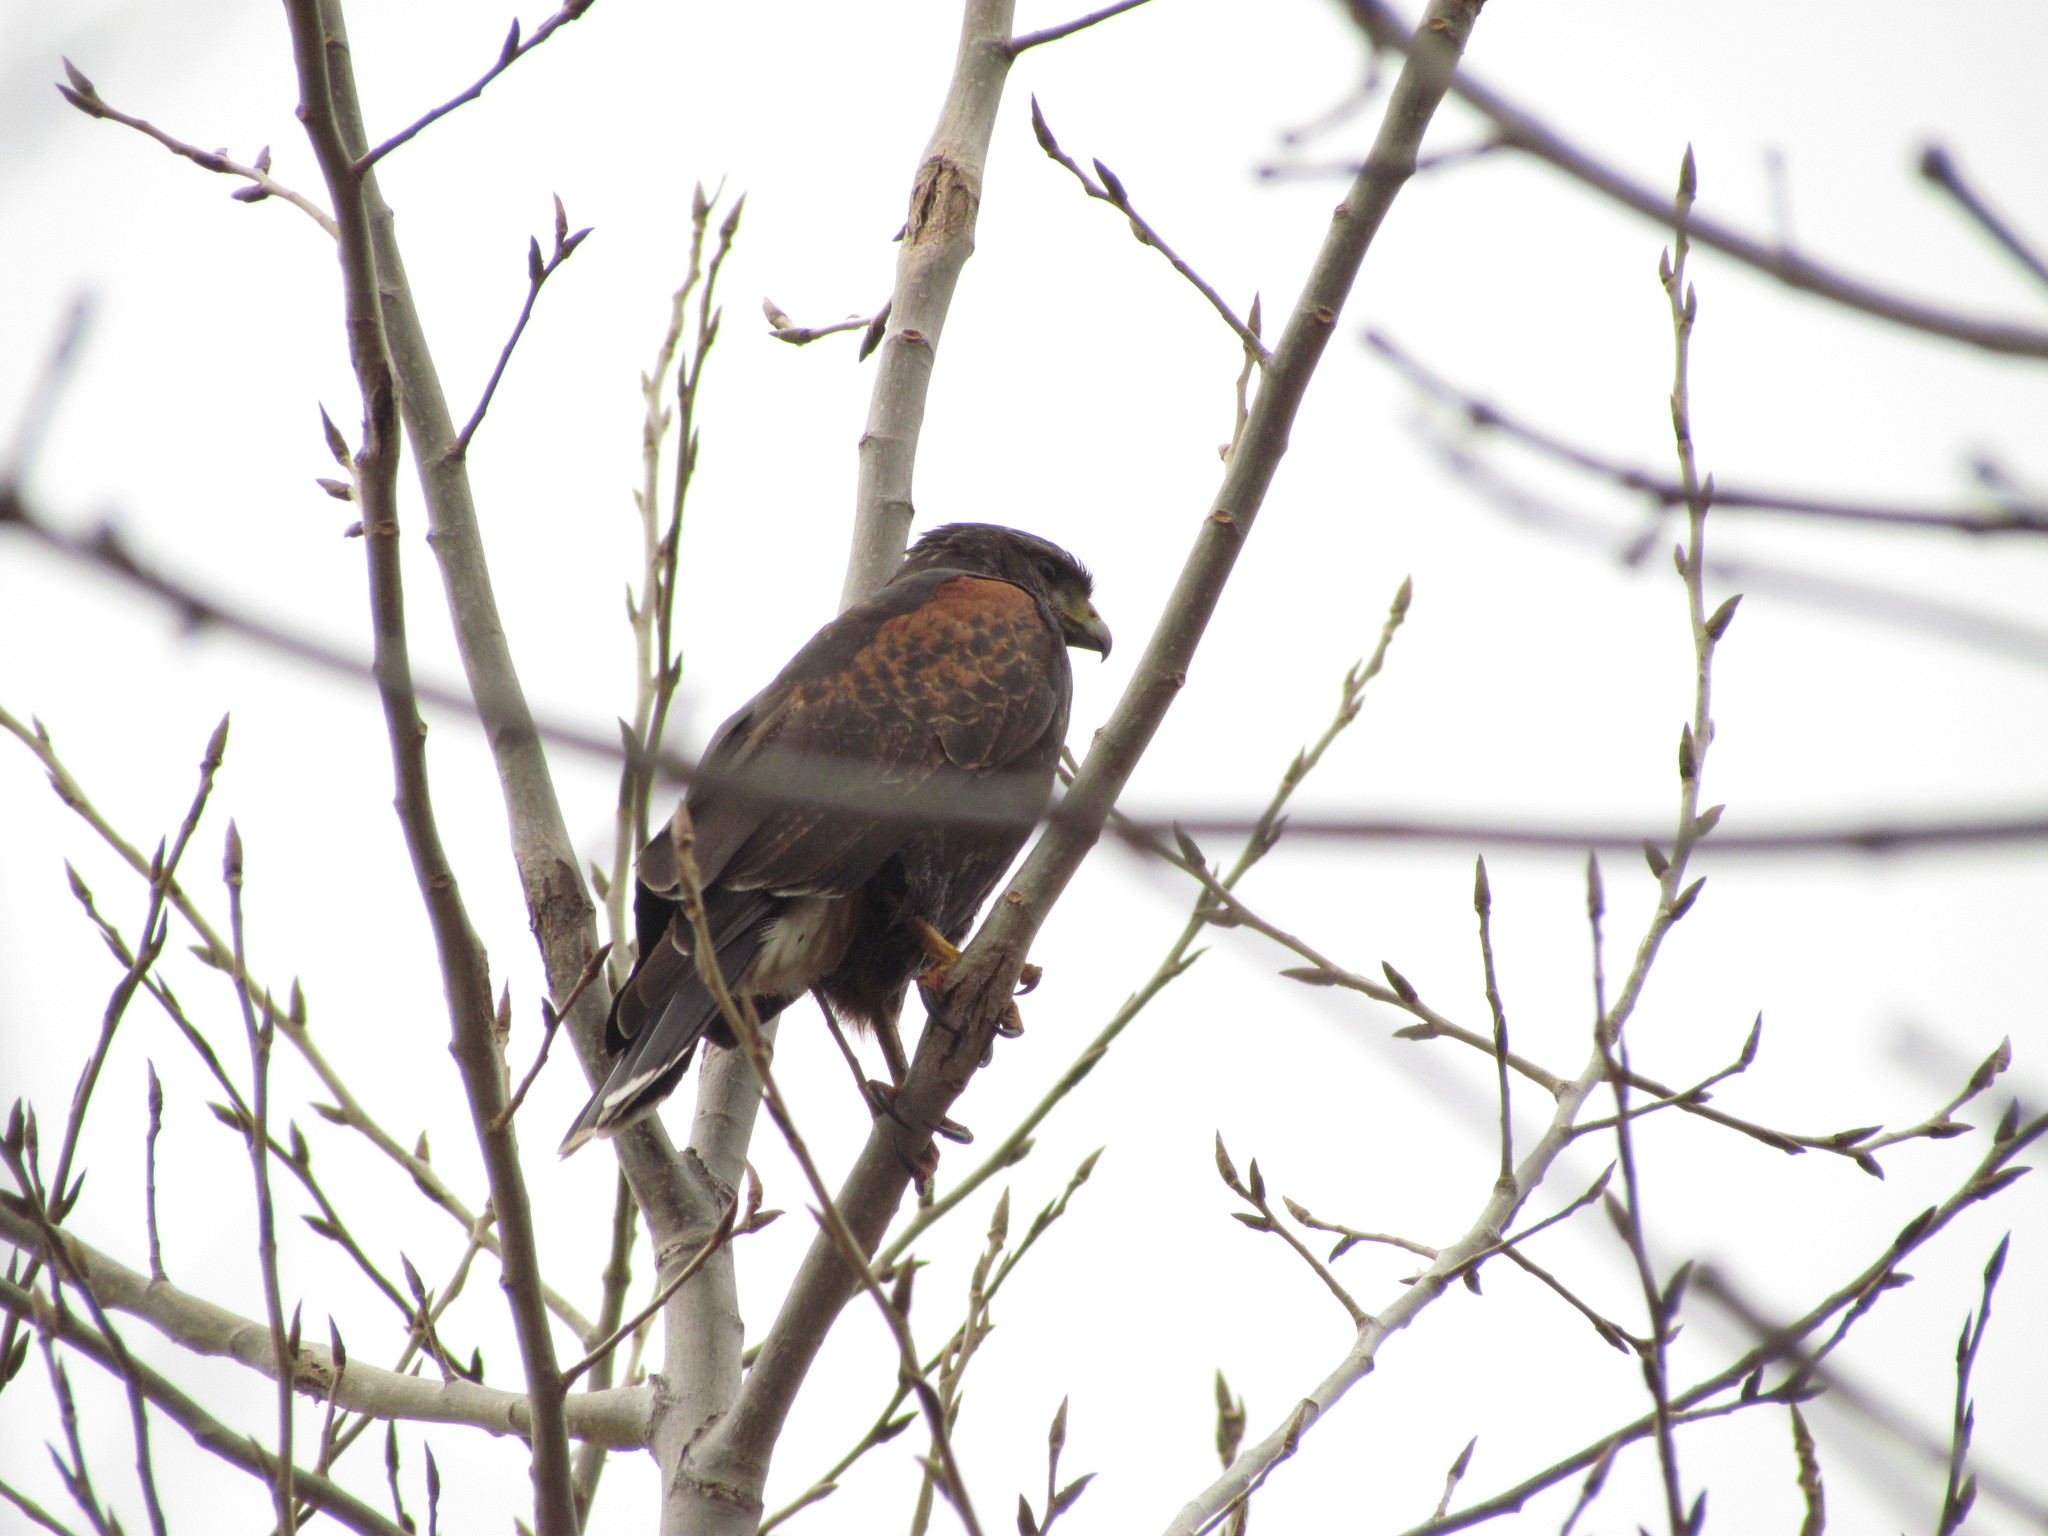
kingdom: Animalia
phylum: Chordata
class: Aves
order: Accipitriformes
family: Accipitridae
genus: Parabuteo
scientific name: Parabuteo unicinctus
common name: Harris's hawk
